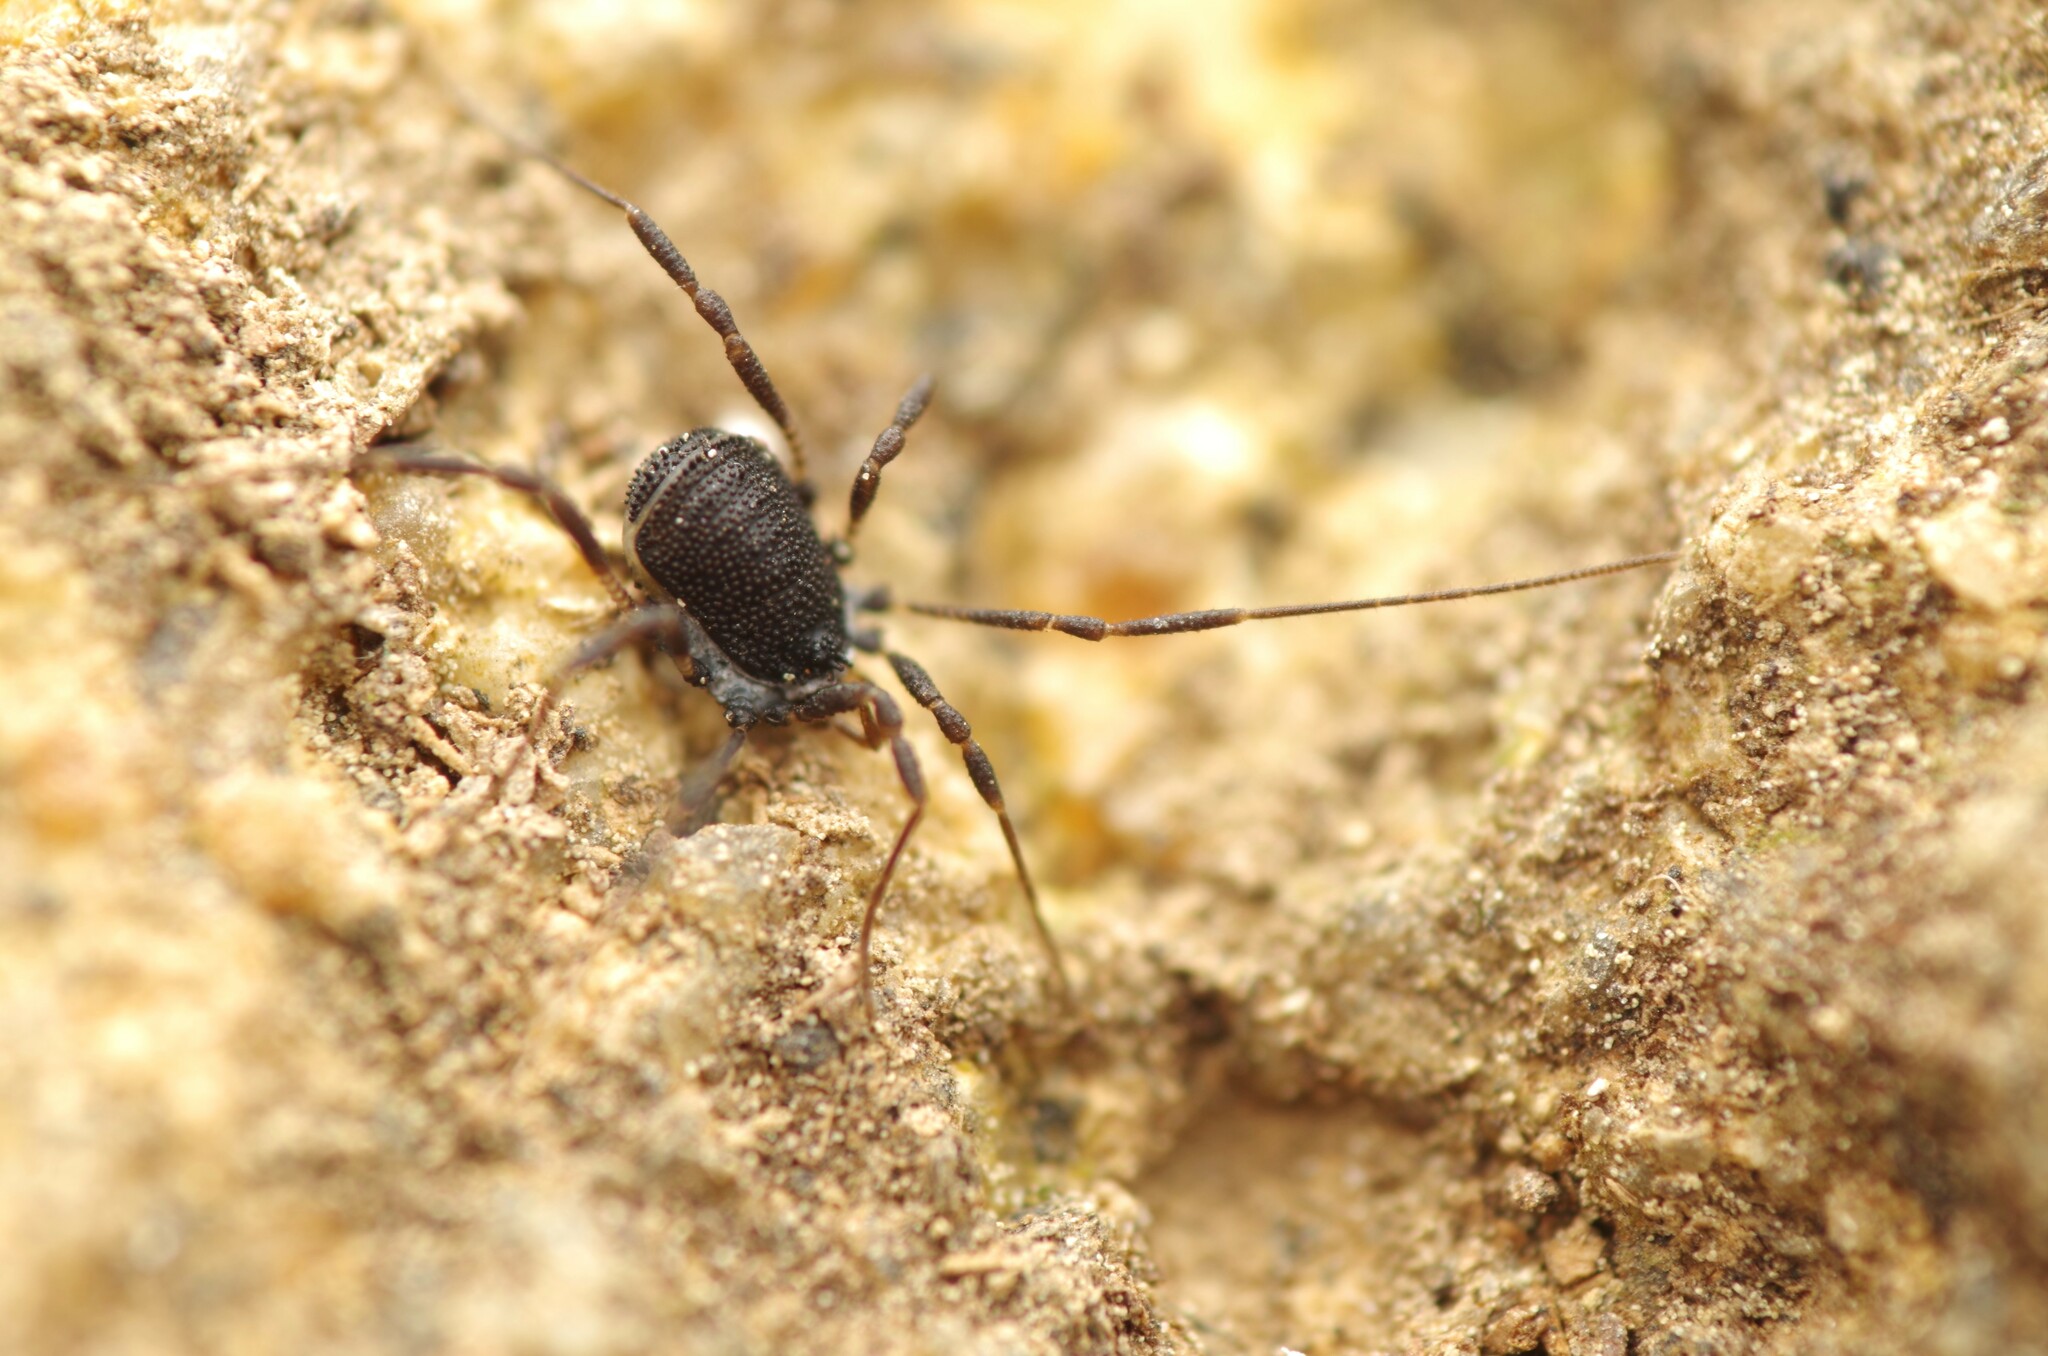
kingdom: Animalia
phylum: Arthropoda
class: Arachnida
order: Opiliones
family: Nemastomatidae
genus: Centetostoma
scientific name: Centetostoma juberthiei
